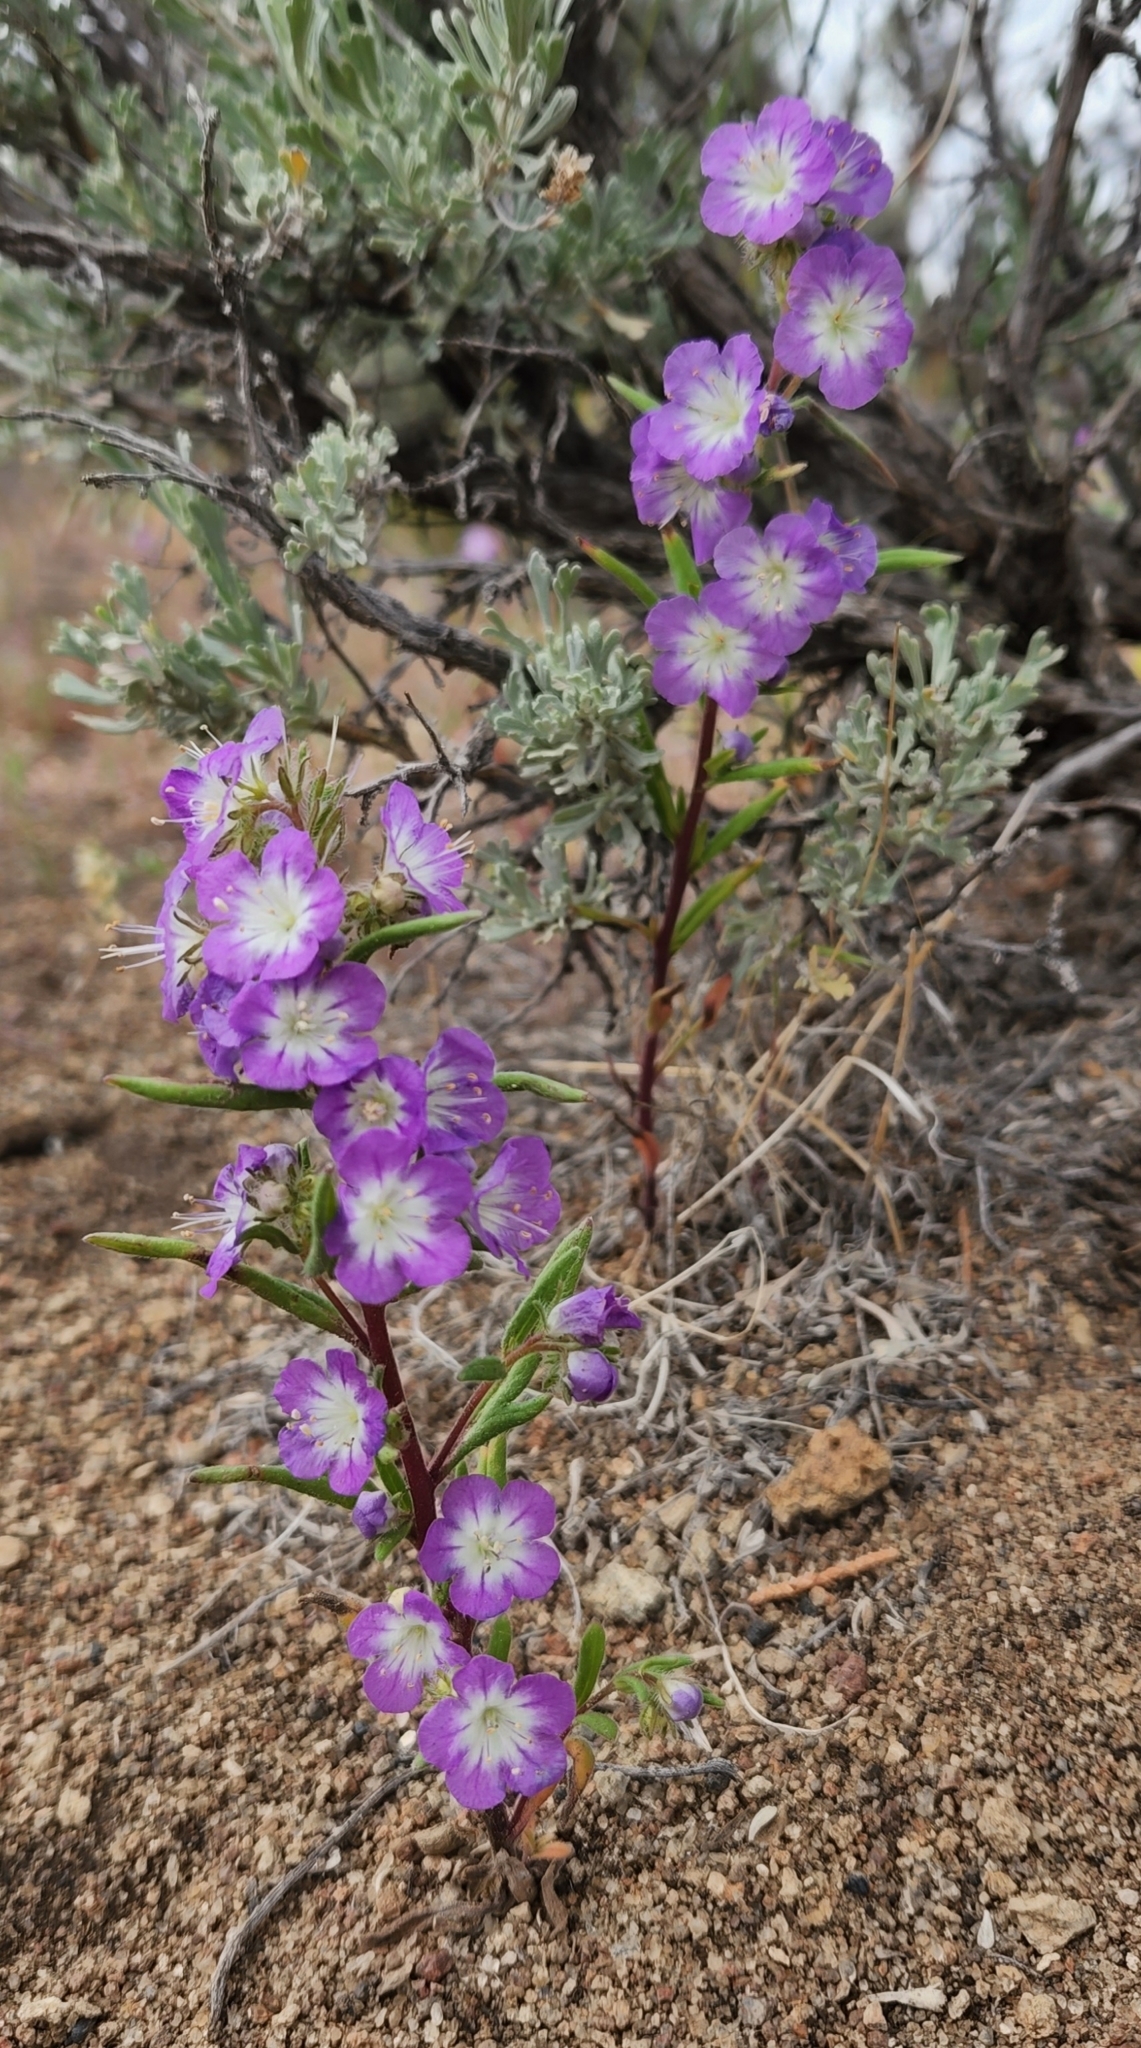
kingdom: Plantae
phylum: Tracheophyta
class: Magnoliopsida
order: Boraginales
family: Hydrophyllaceae
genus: Phacelia
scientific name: Phacelia linearis
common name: Linear-leaved phacelia
